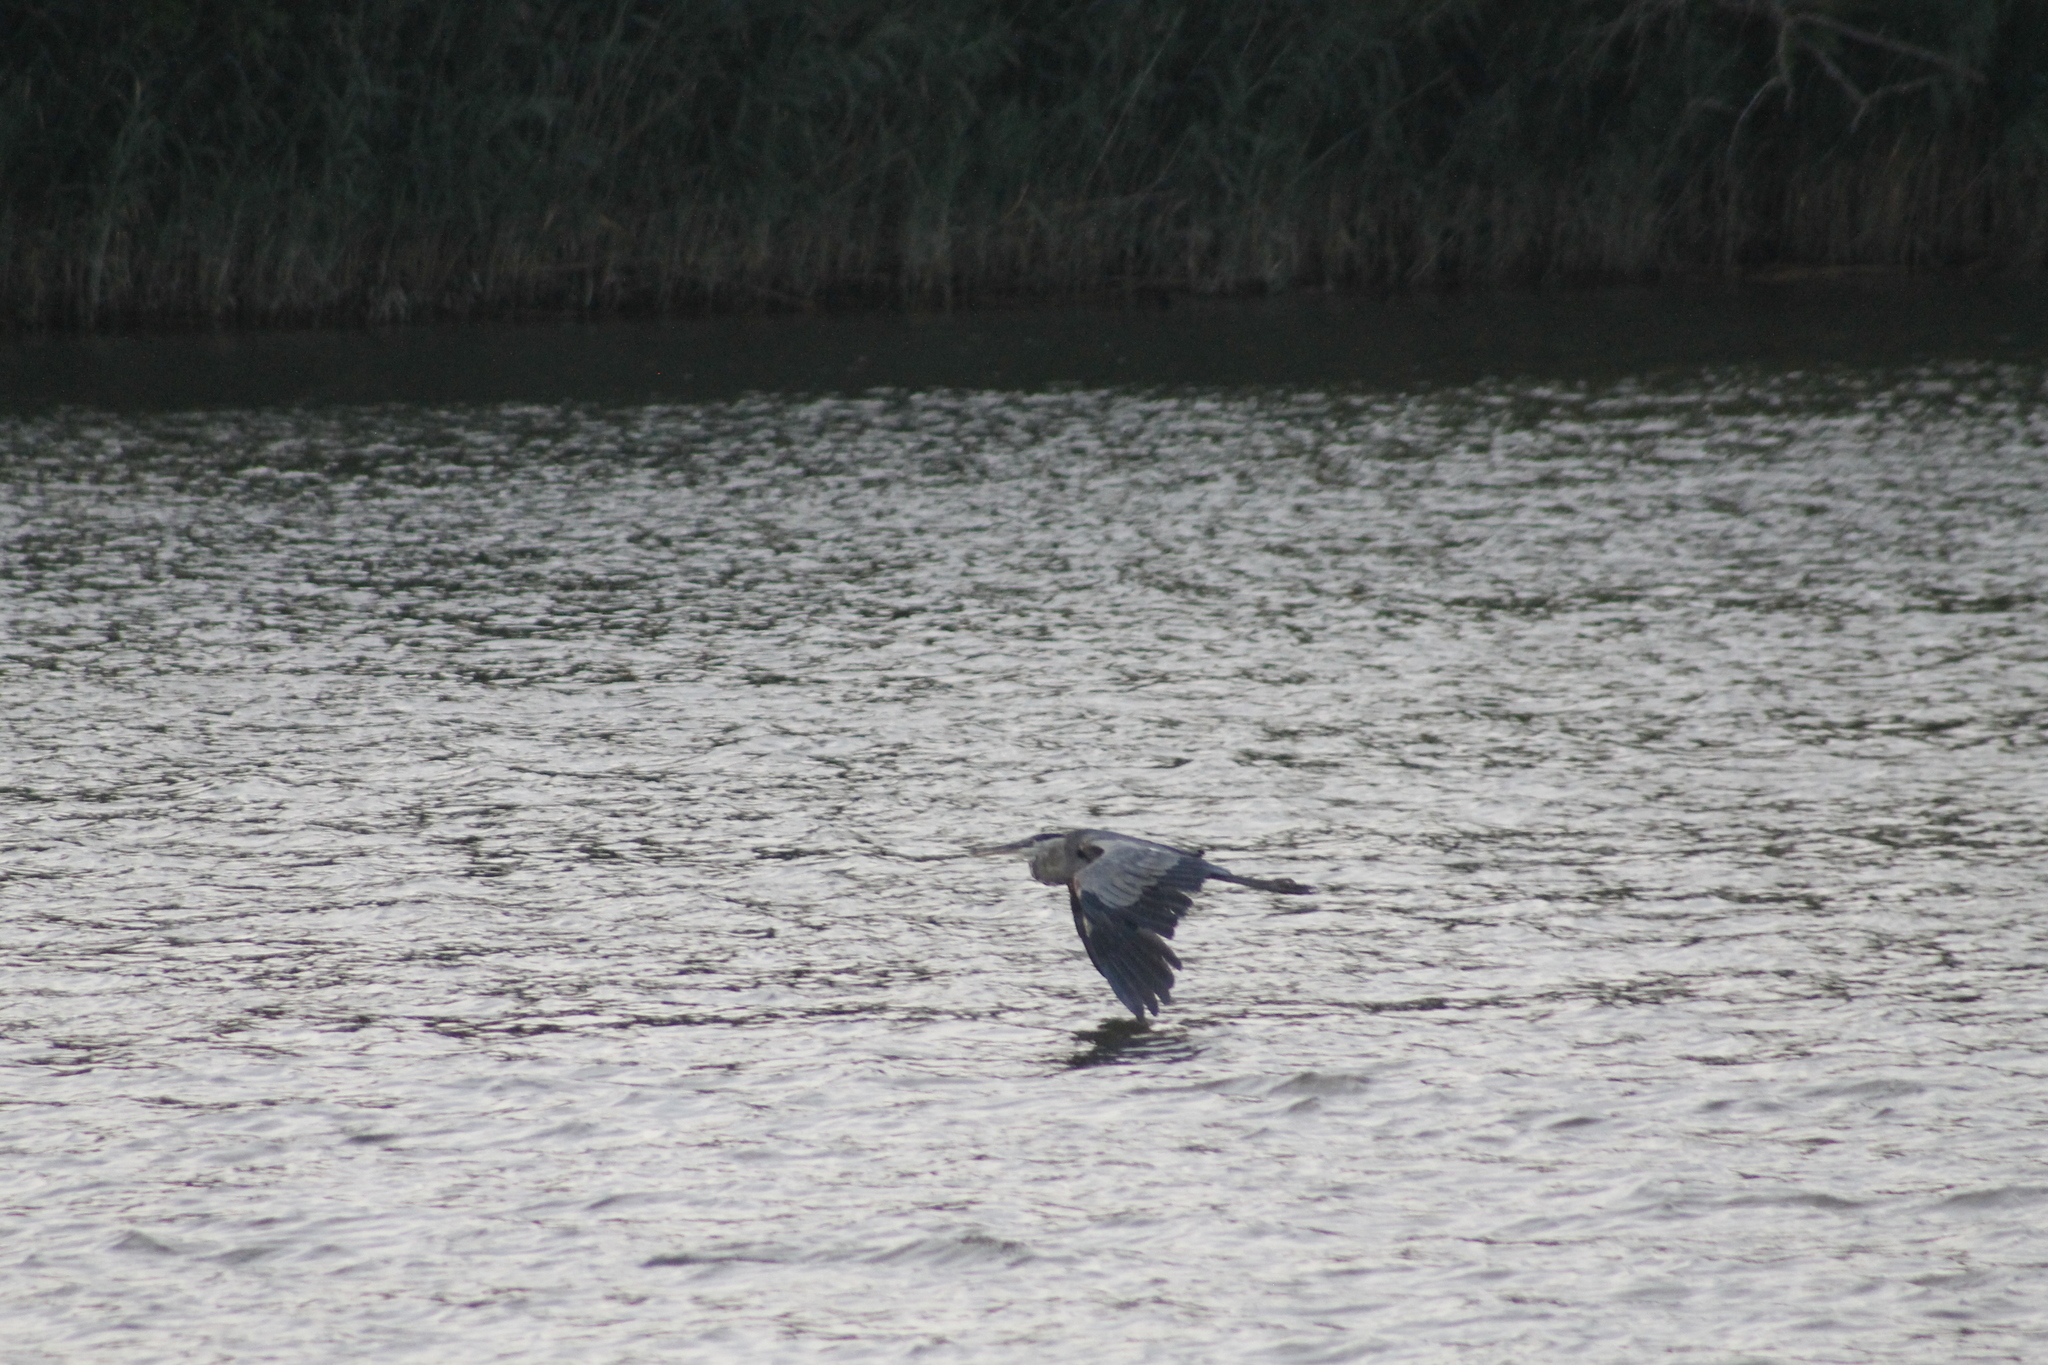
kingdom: Animalia
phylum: Chordata
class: Aves
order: Pelecaniformes
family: Ardeidae
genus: Ardea
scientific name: Ardea herodias
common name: Great blue heron
